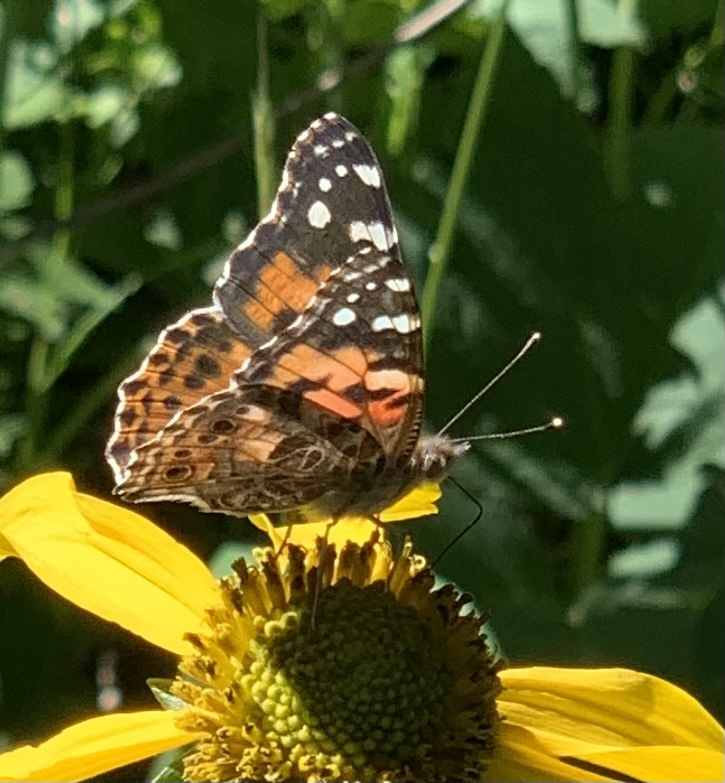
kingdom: Animalia
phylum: Arthropoda
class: Insecta
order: Lepidoptera
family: Nymphalidae
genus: Vanessa
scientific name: Vanessa cardui
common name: Painted lady
